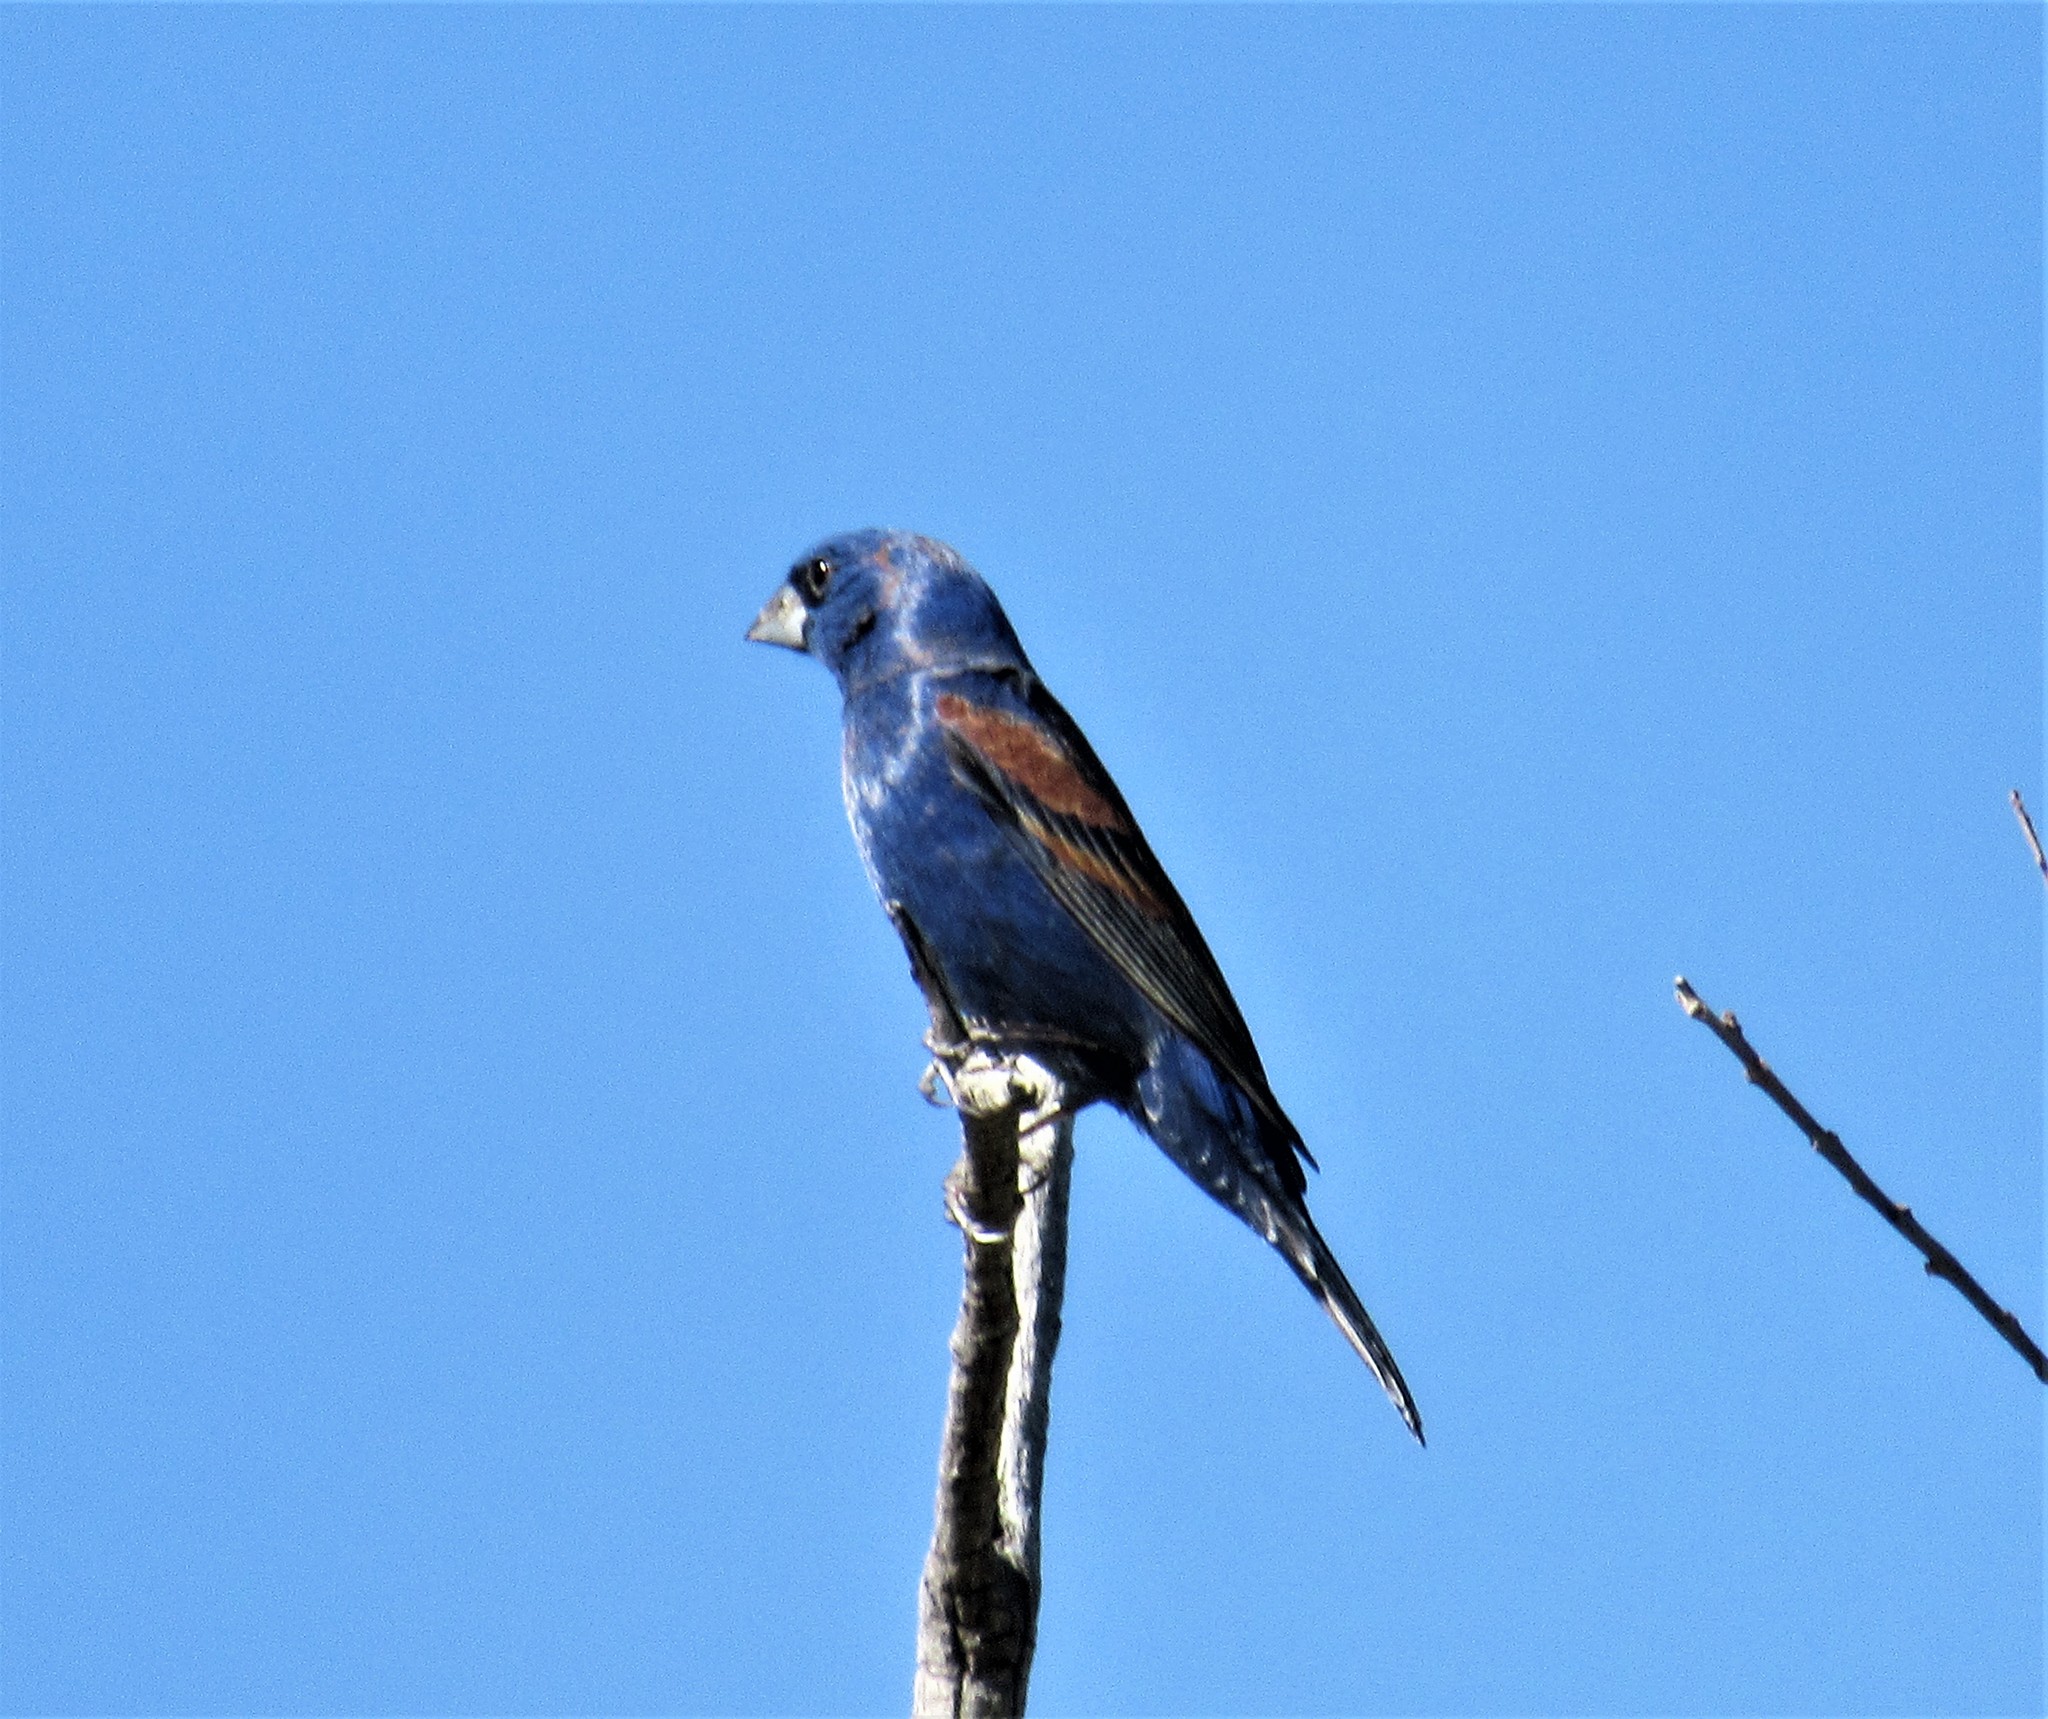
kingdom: Animalia
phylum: Chordata
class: Aves
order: Passeriformes
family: Cardinalidae
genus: Passerina
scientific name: Passerina caerulea
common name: Blue grosbeak
